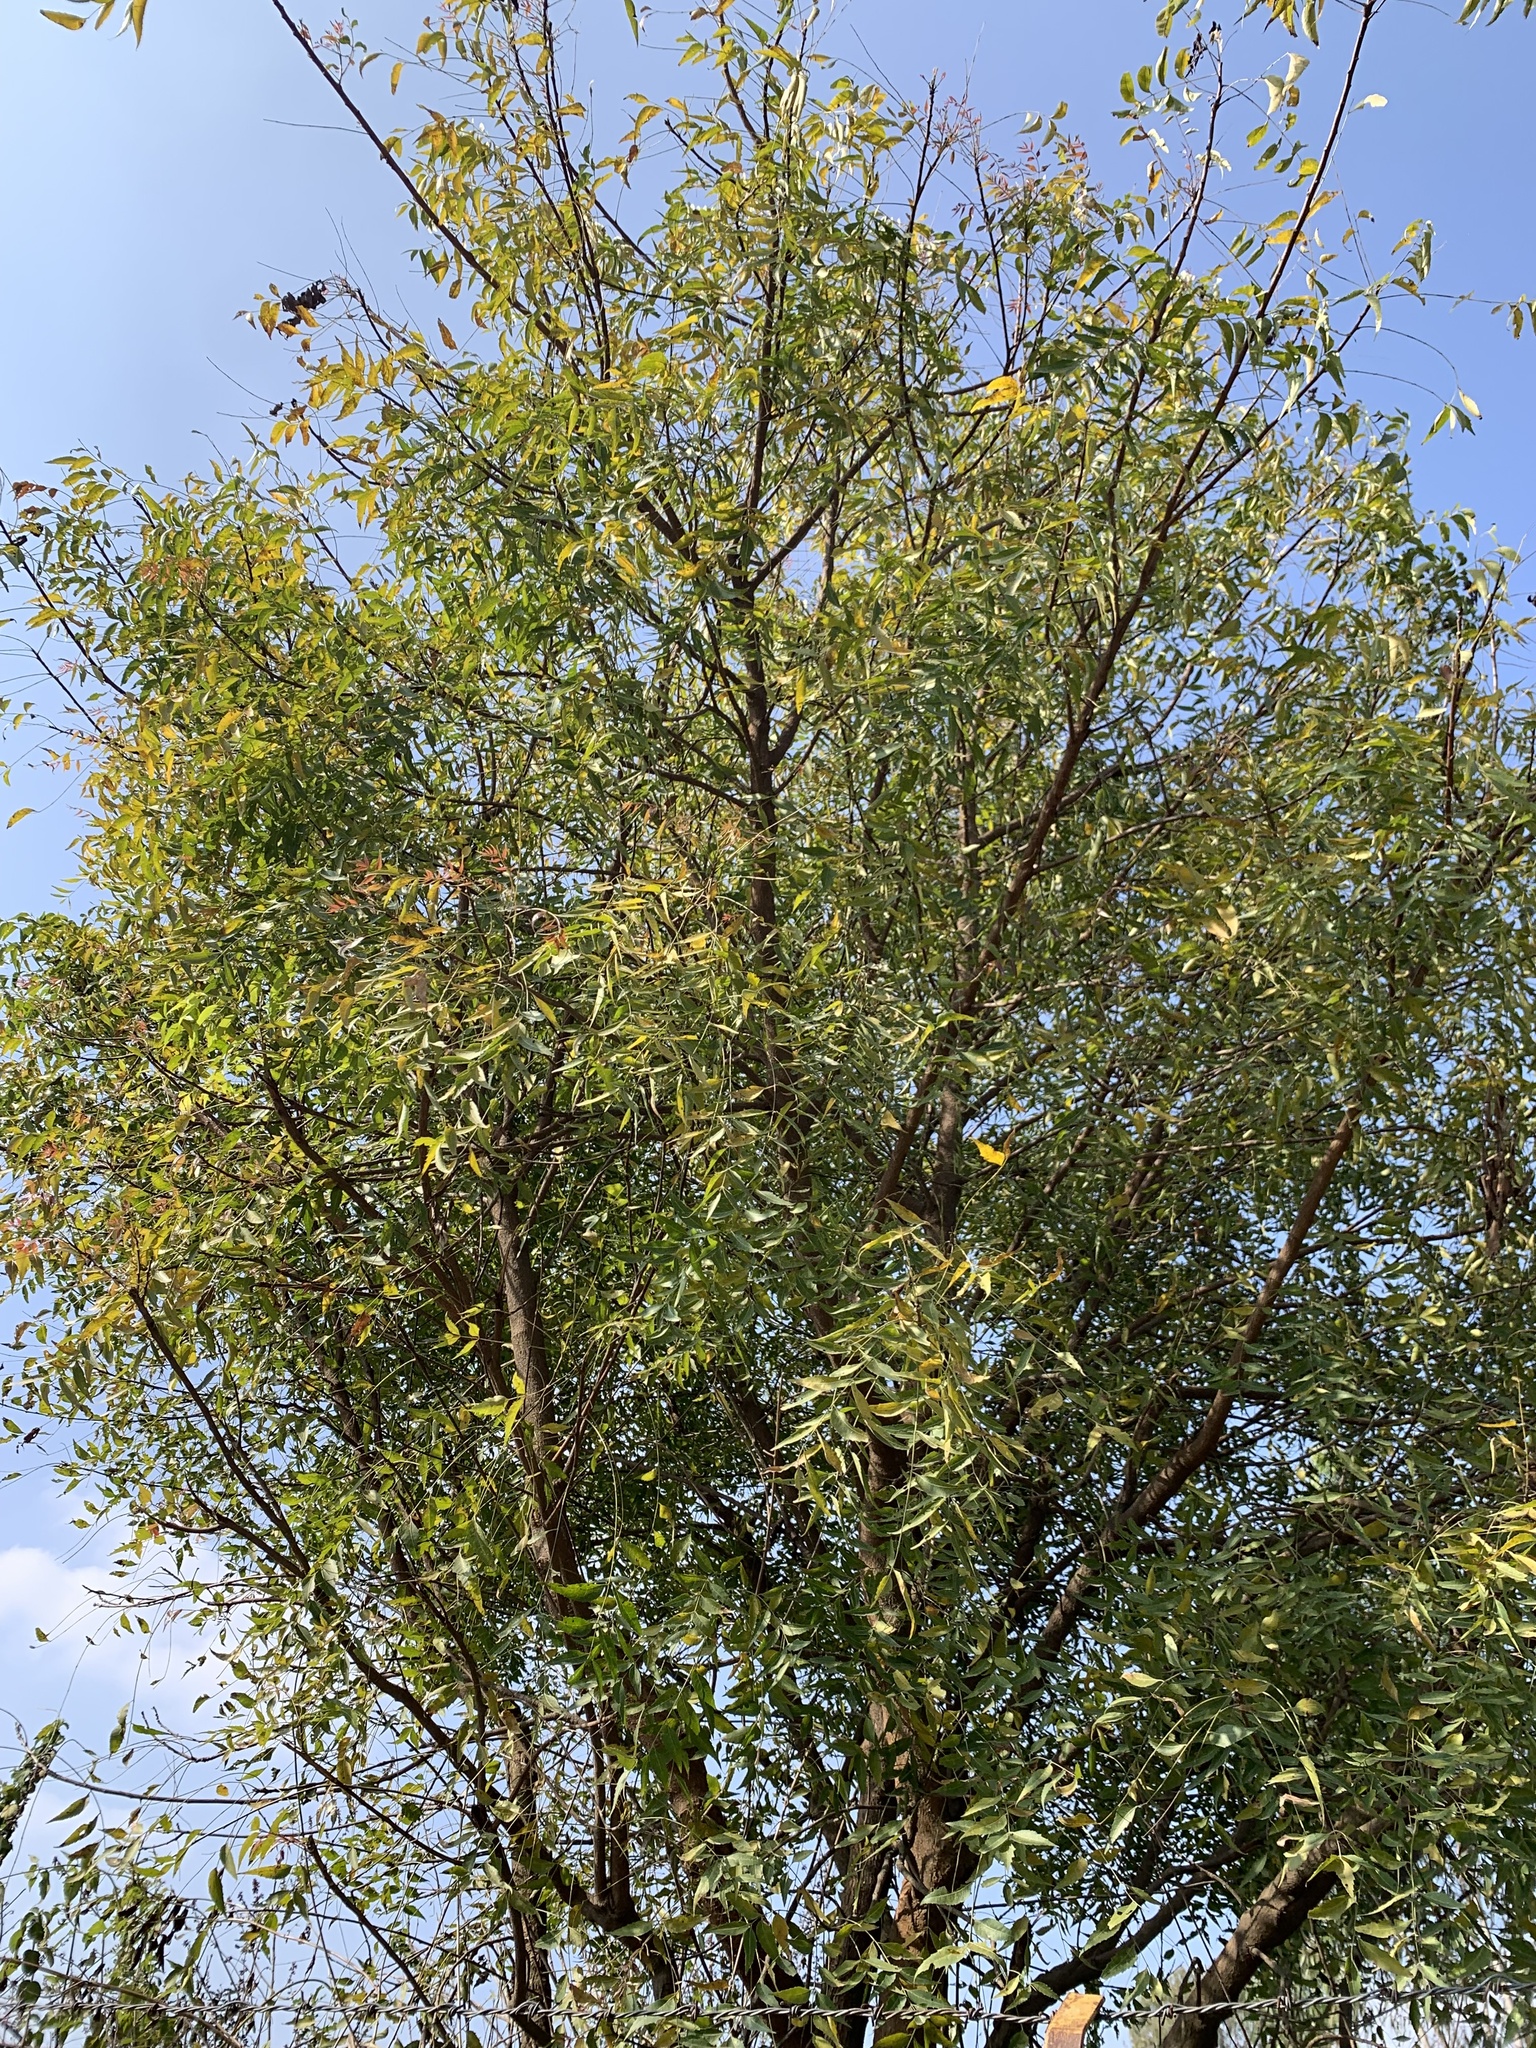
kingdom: Plantae
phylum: Tracheophyta
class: Magnoliopsida
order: Sapindales
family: Meliaceae
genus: Azadirachta
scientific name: Azadirachta indica
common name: Neem
